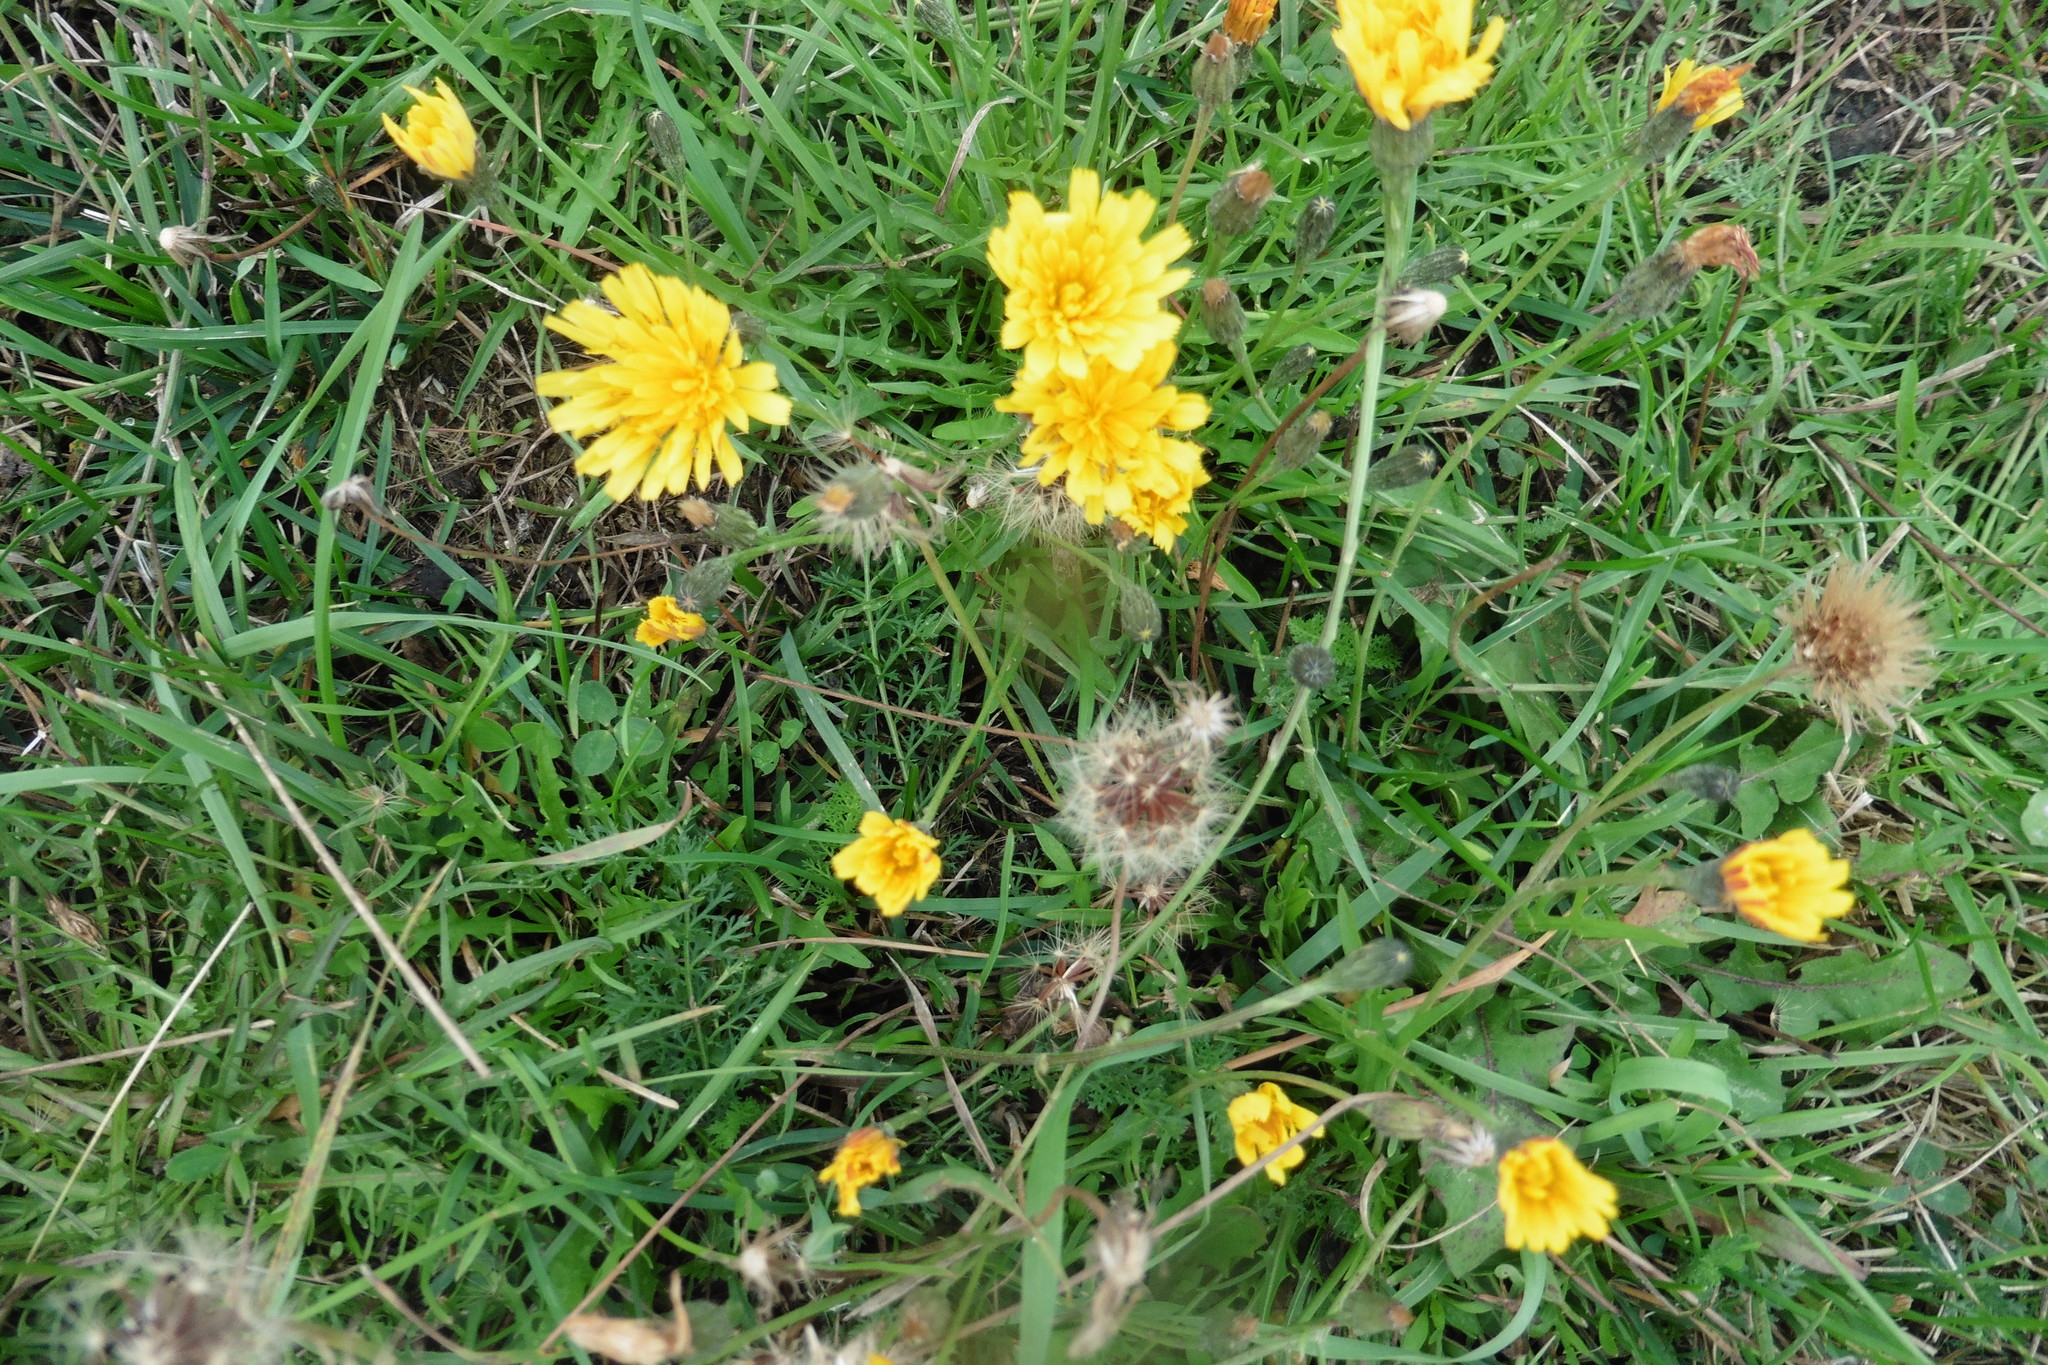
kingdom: Plantae
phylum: Tracheophyta
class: Magnoliopsida
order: Asterales
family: Asteraceae
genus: Scorzoneroides
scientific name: Scorzoneroides autumnalis
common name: Autumn hawkbit
